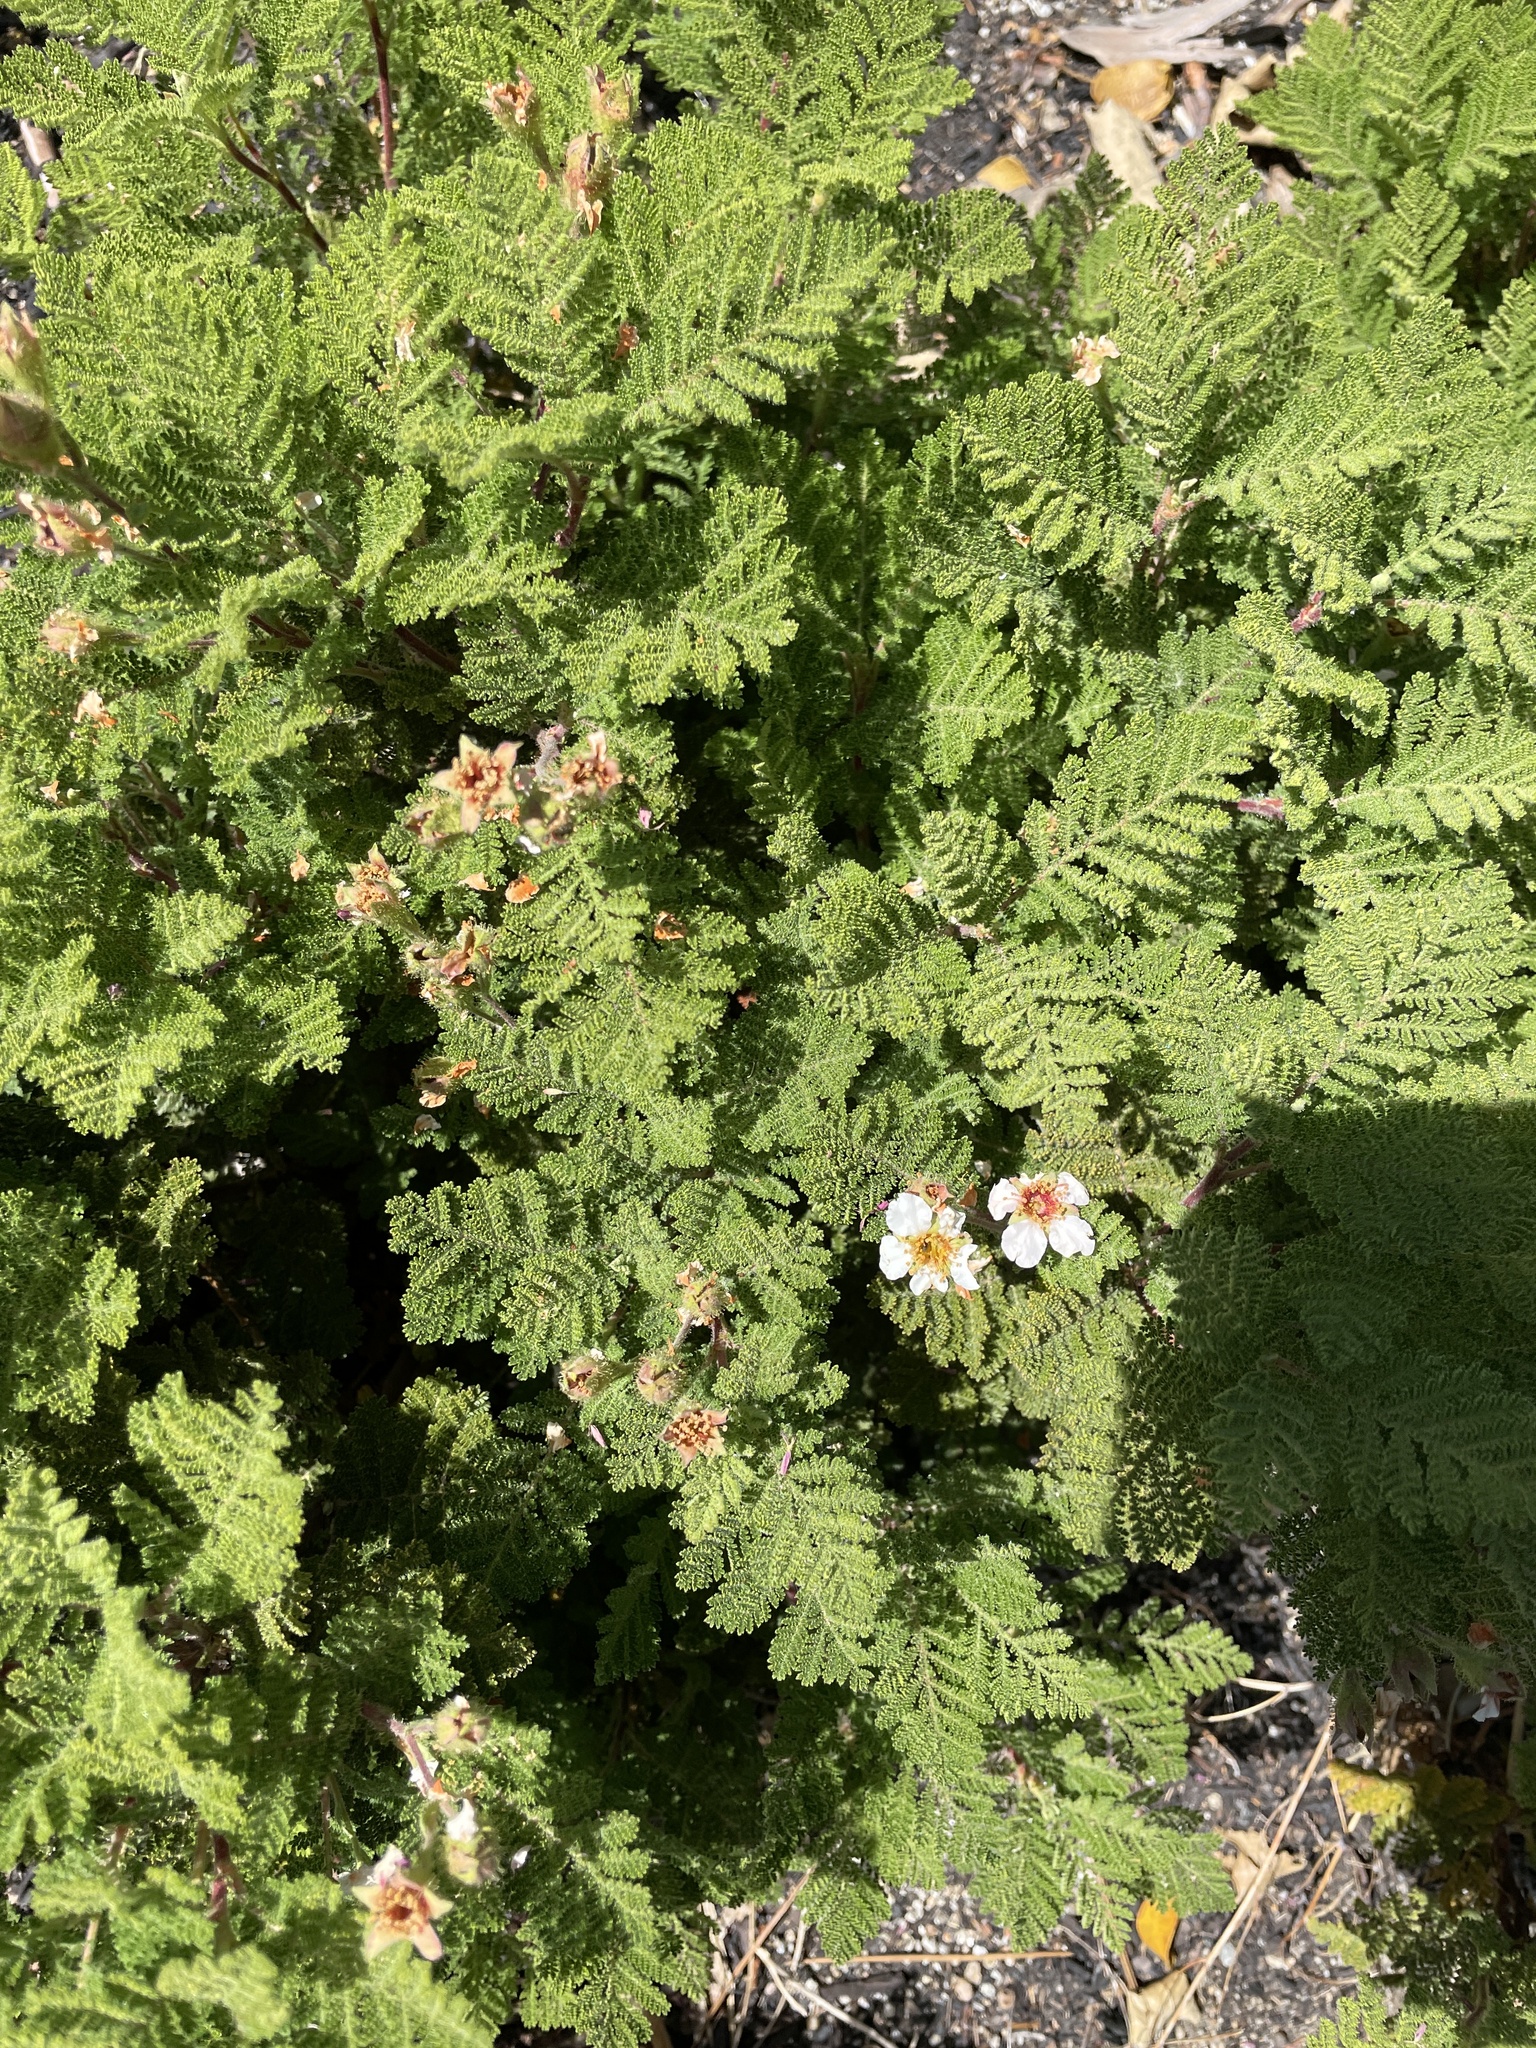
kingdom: Plantae
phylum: Tracheophyta
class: Magnoliopsida
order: Rosales
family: Rosaceae
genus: Chamaebatia
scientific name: Chamaebatia foliolosa
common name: Mountain misery
